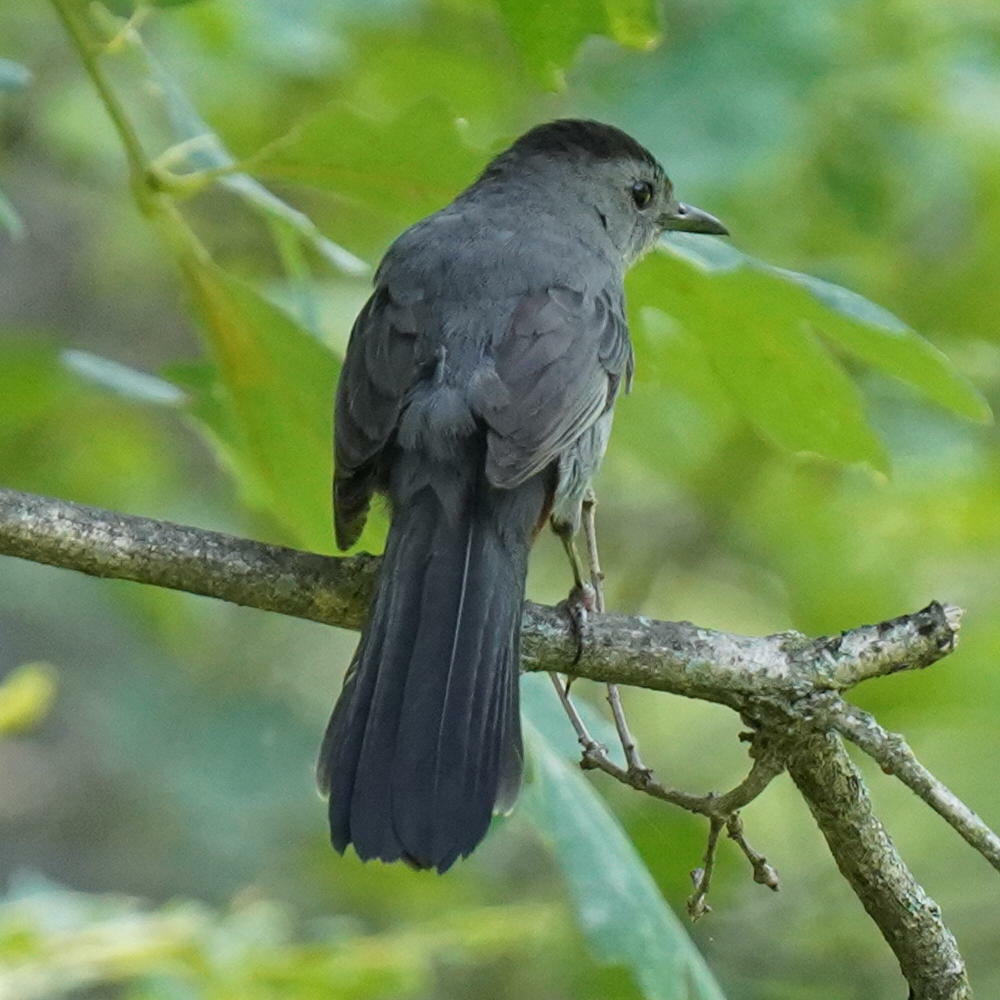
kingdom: Animalia
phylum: Chordata
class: Aves
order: Passeriformes
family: Mimidae
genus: Dumetella
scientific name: Dumetella carolinensis
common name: Gray catbird
